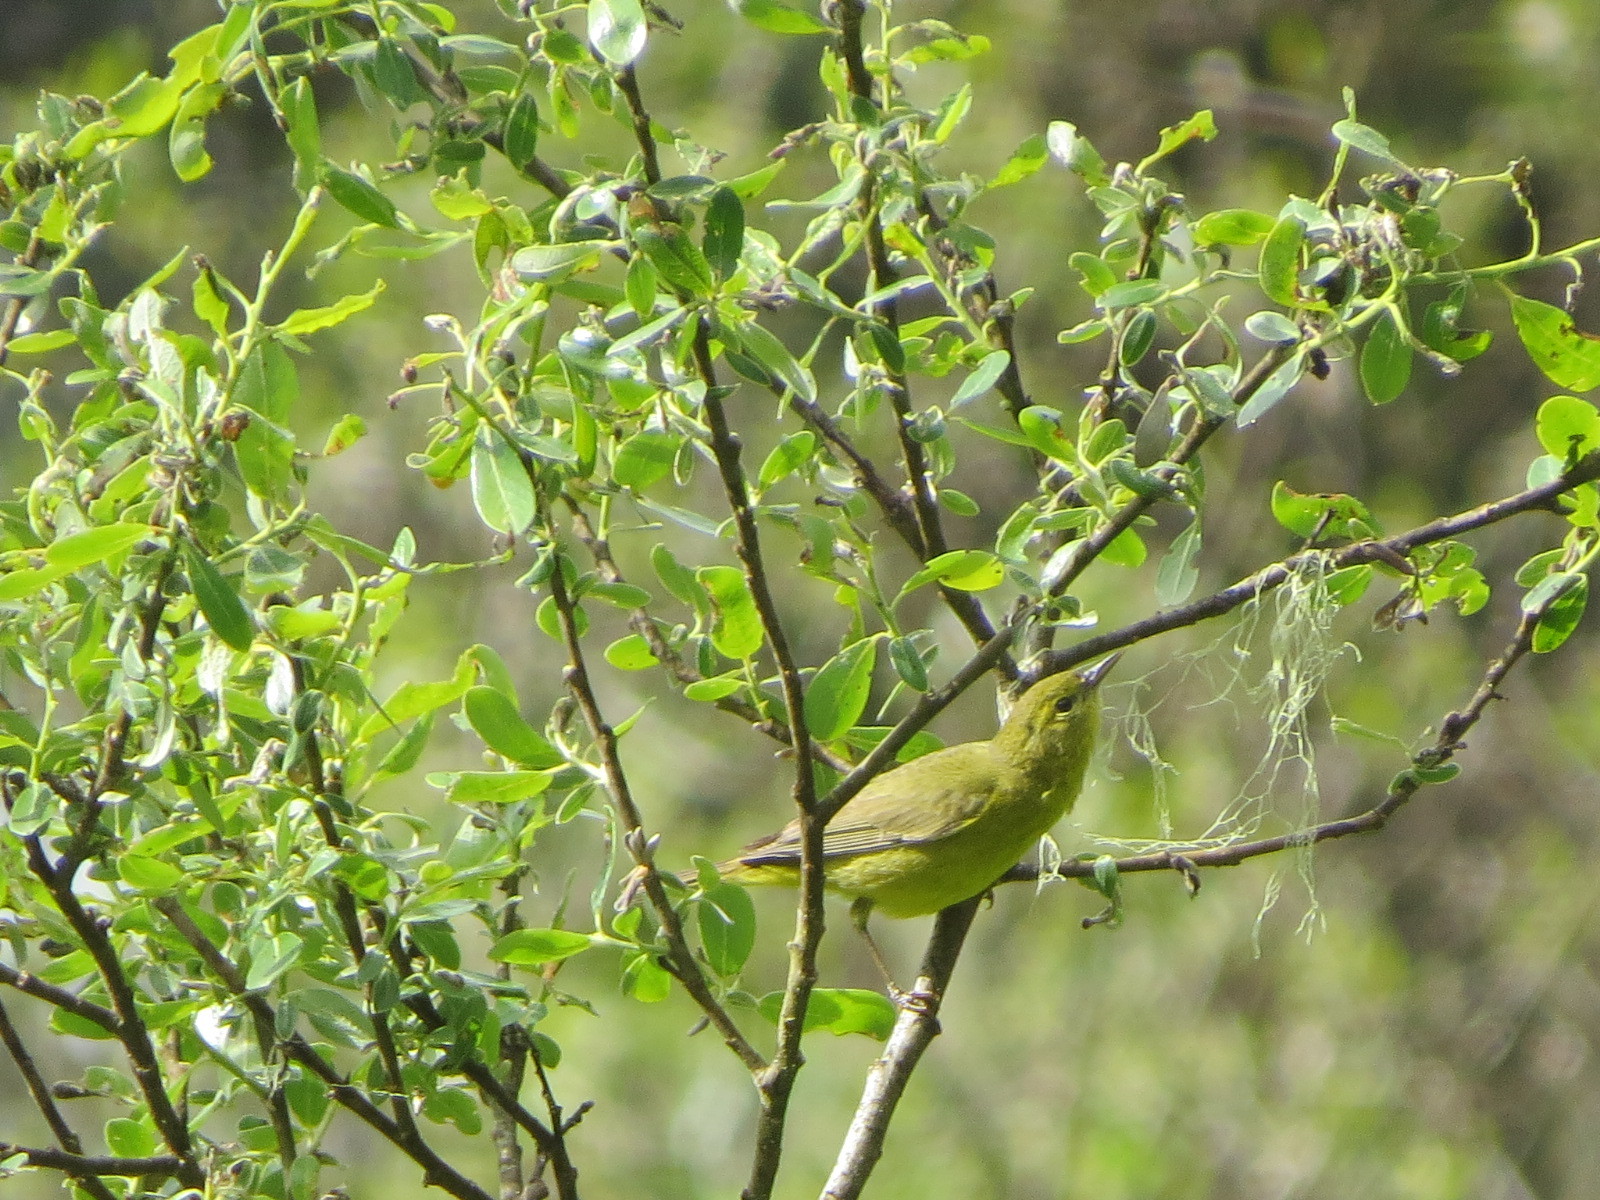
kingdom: Animalia
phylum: Chordata
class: Aves
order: Passeriformes
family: Parulidae
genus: Leiothlypis
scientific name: Leiothlypis celata
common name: Orange-crowned warbler
